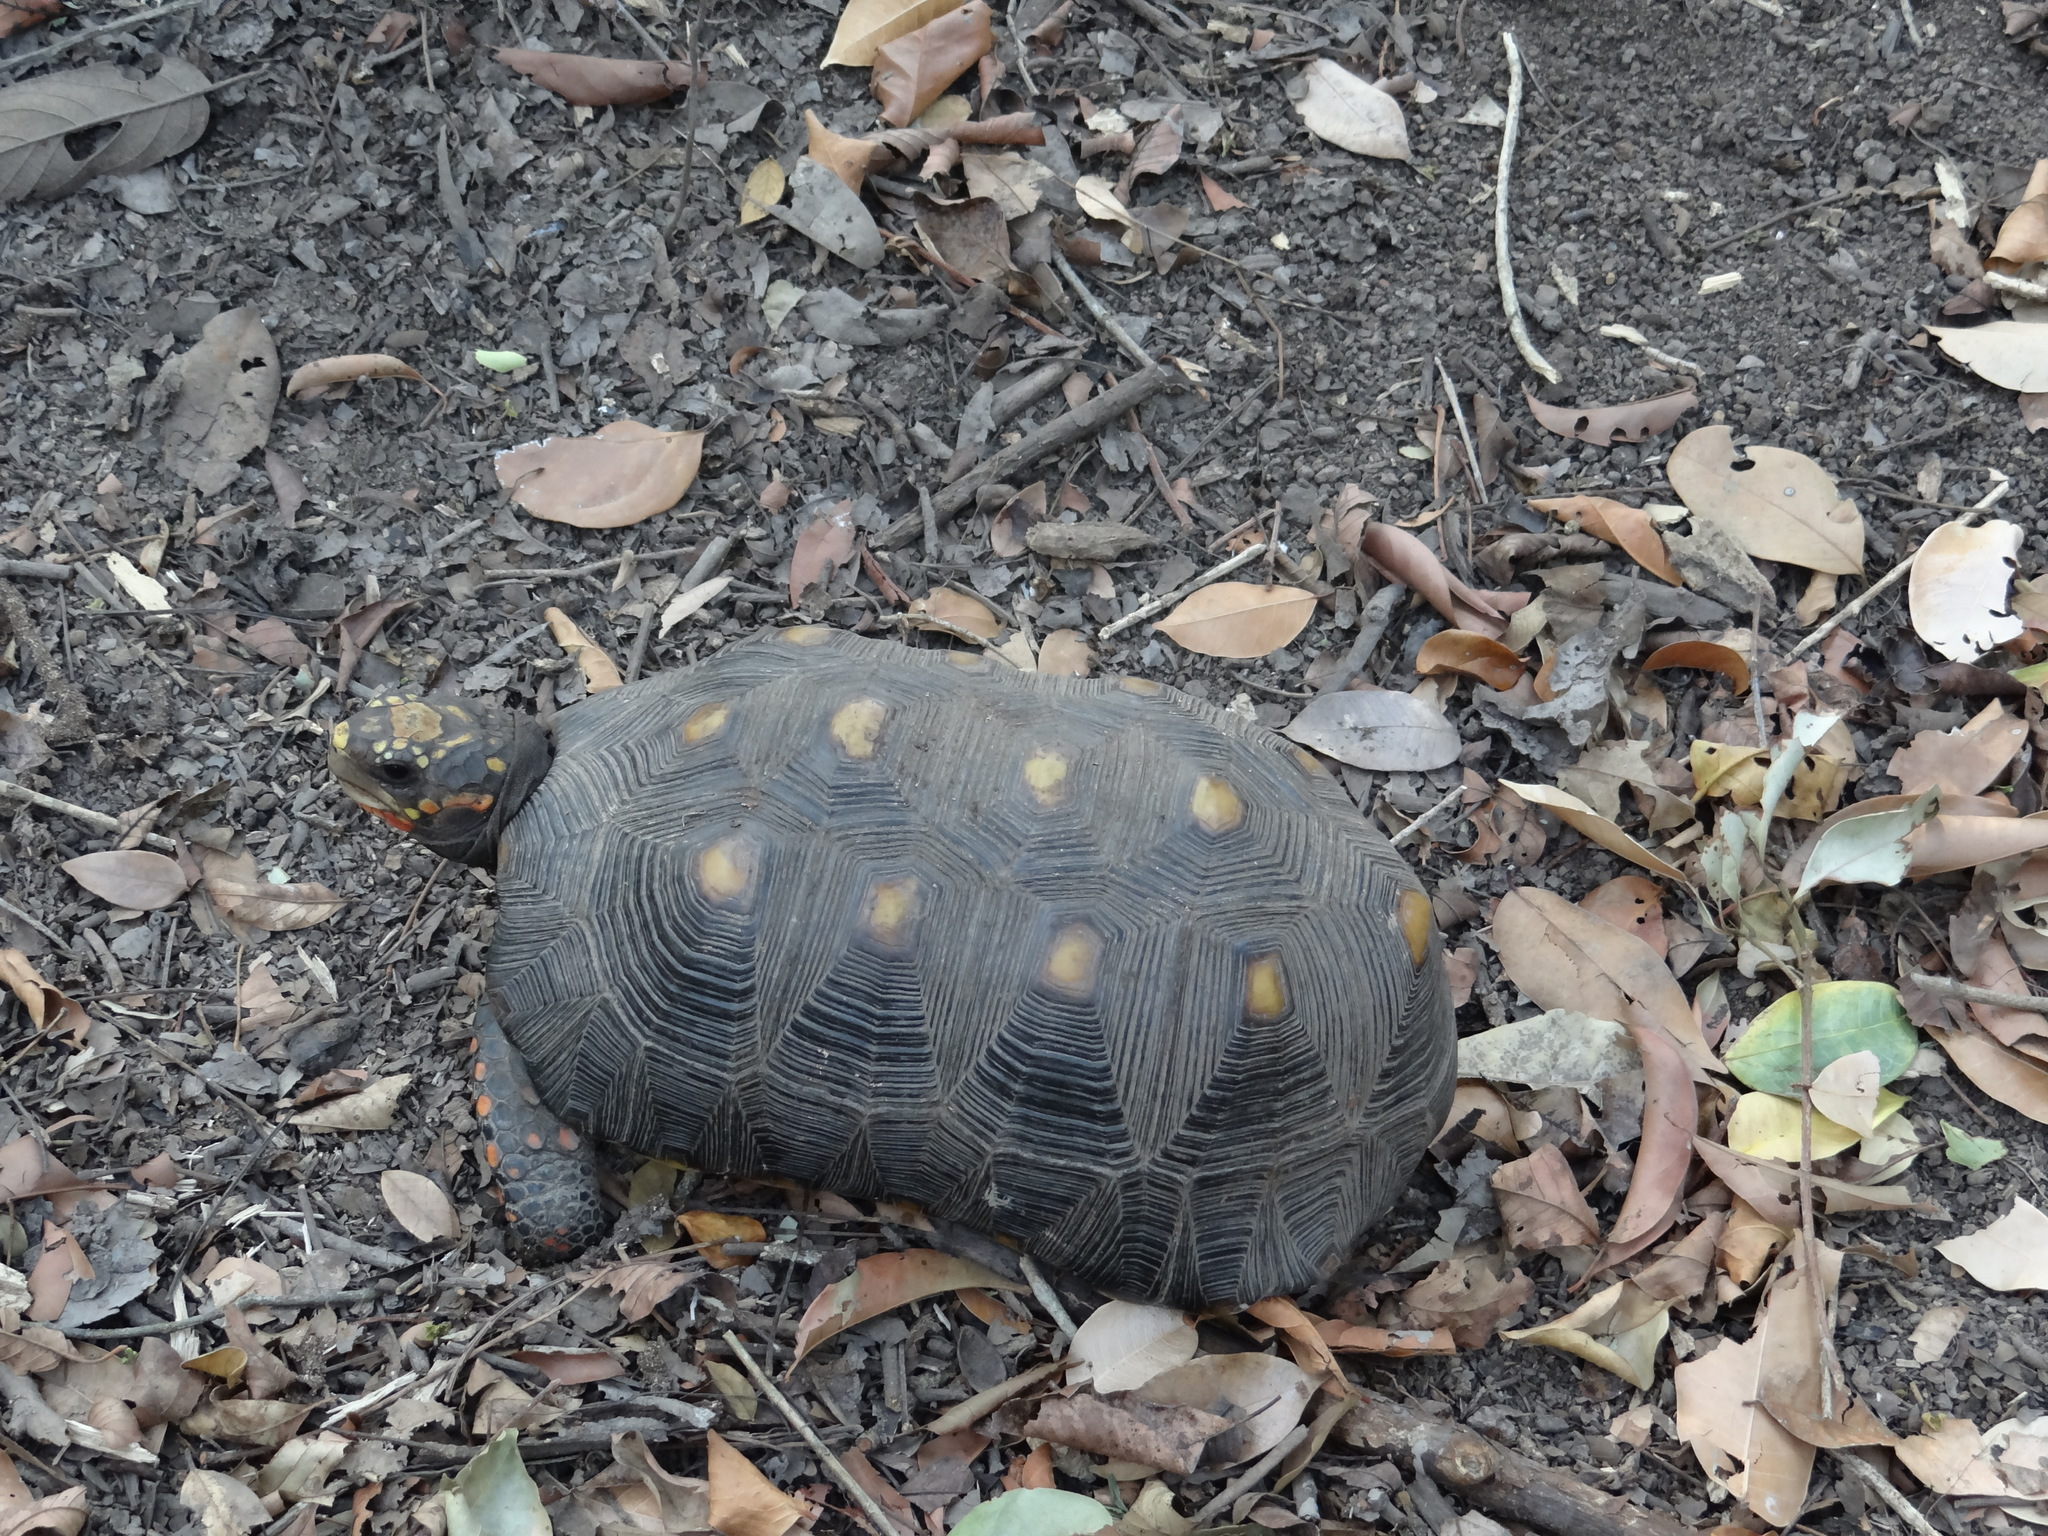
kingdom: Animalia
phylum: Chordata
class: Testudines
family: Testudinidae
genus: Chelonoidis
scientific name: Chelonoidis carbonarius
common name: Red-footed tortoise
